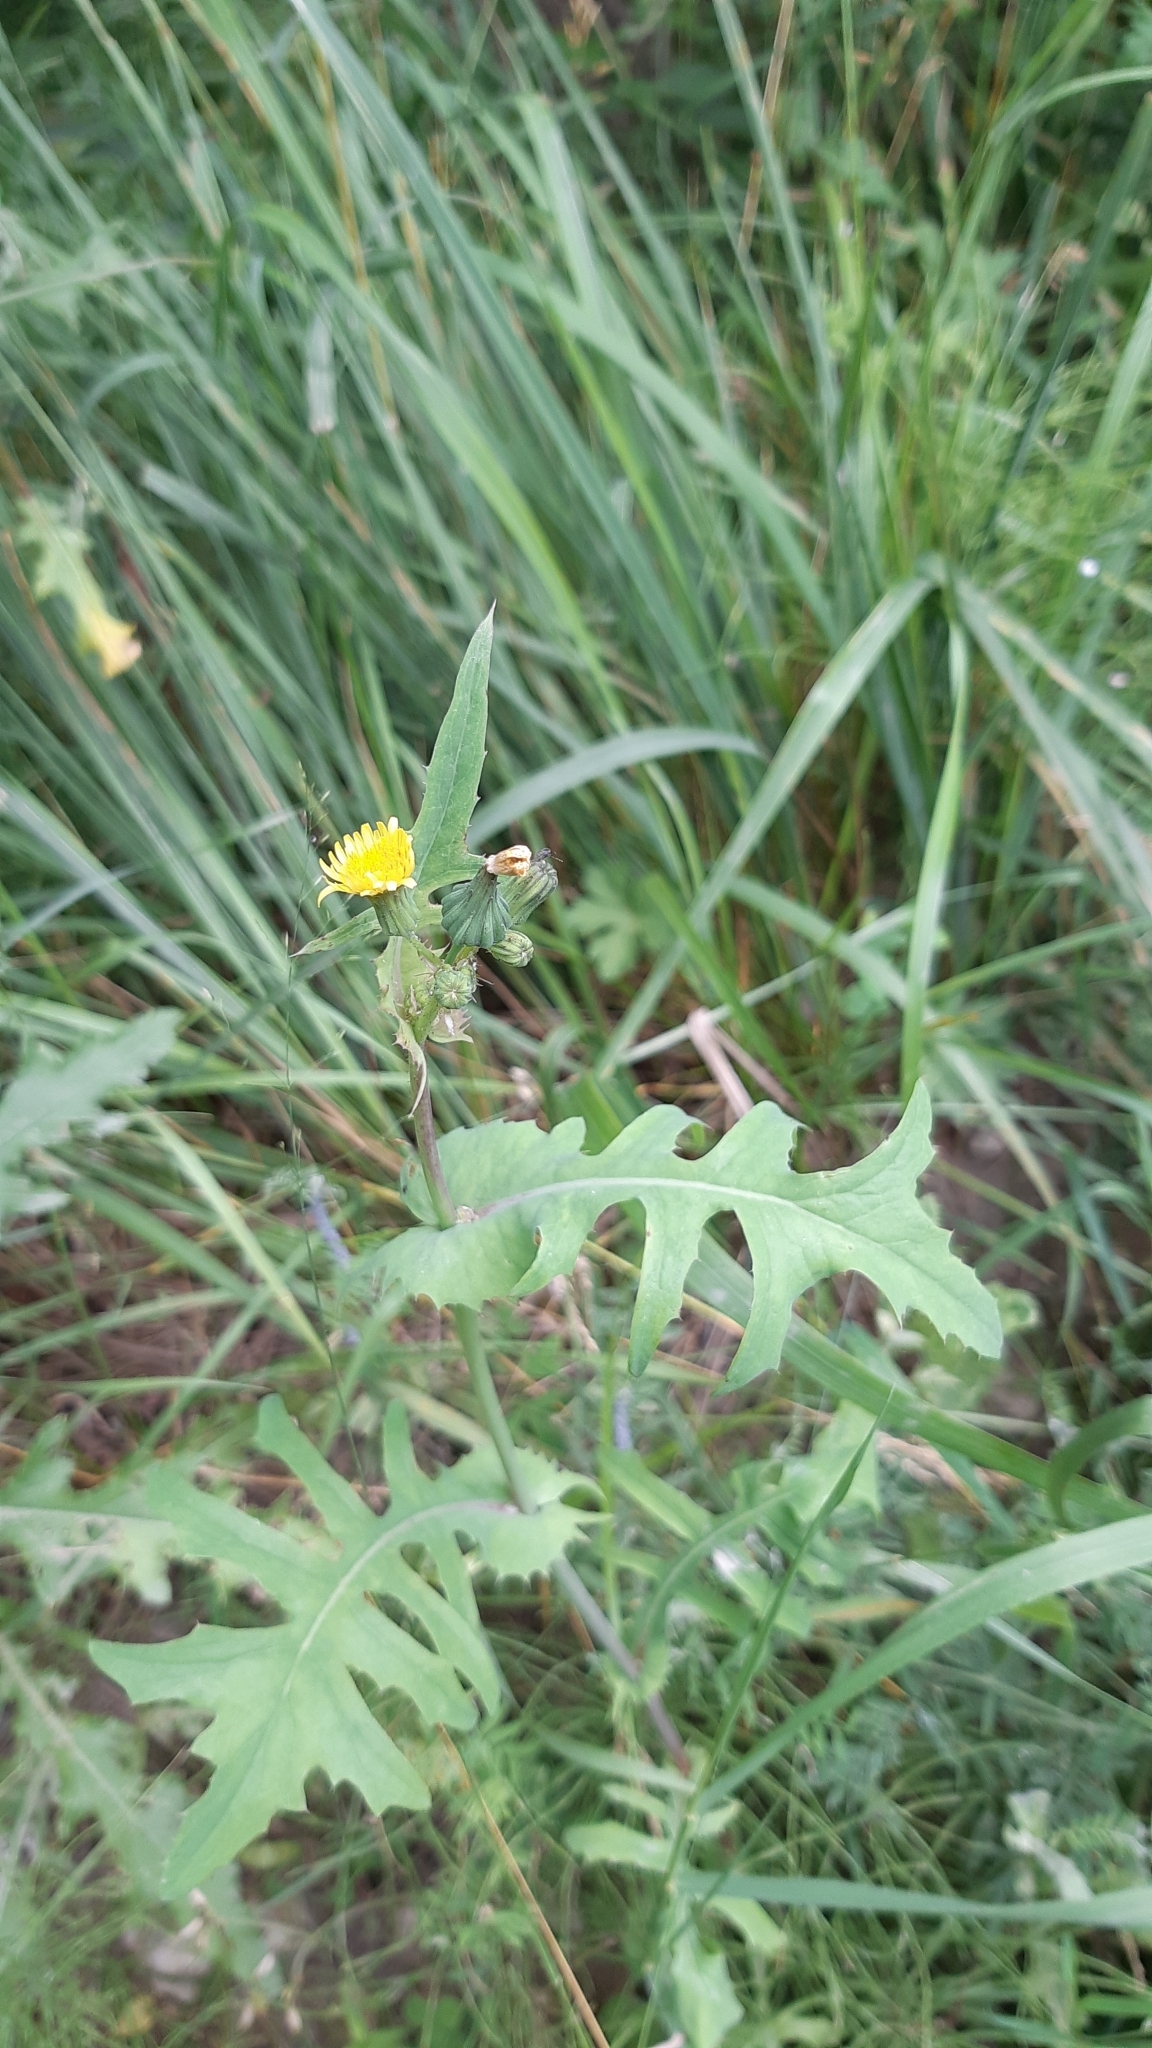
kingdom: Plantae
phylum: Tracheophyta
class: Magnoliopsida
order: Asterales
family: Asteraceae
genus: Sonchus
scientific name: Sonchus oleraceus
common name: Common sowthistle
